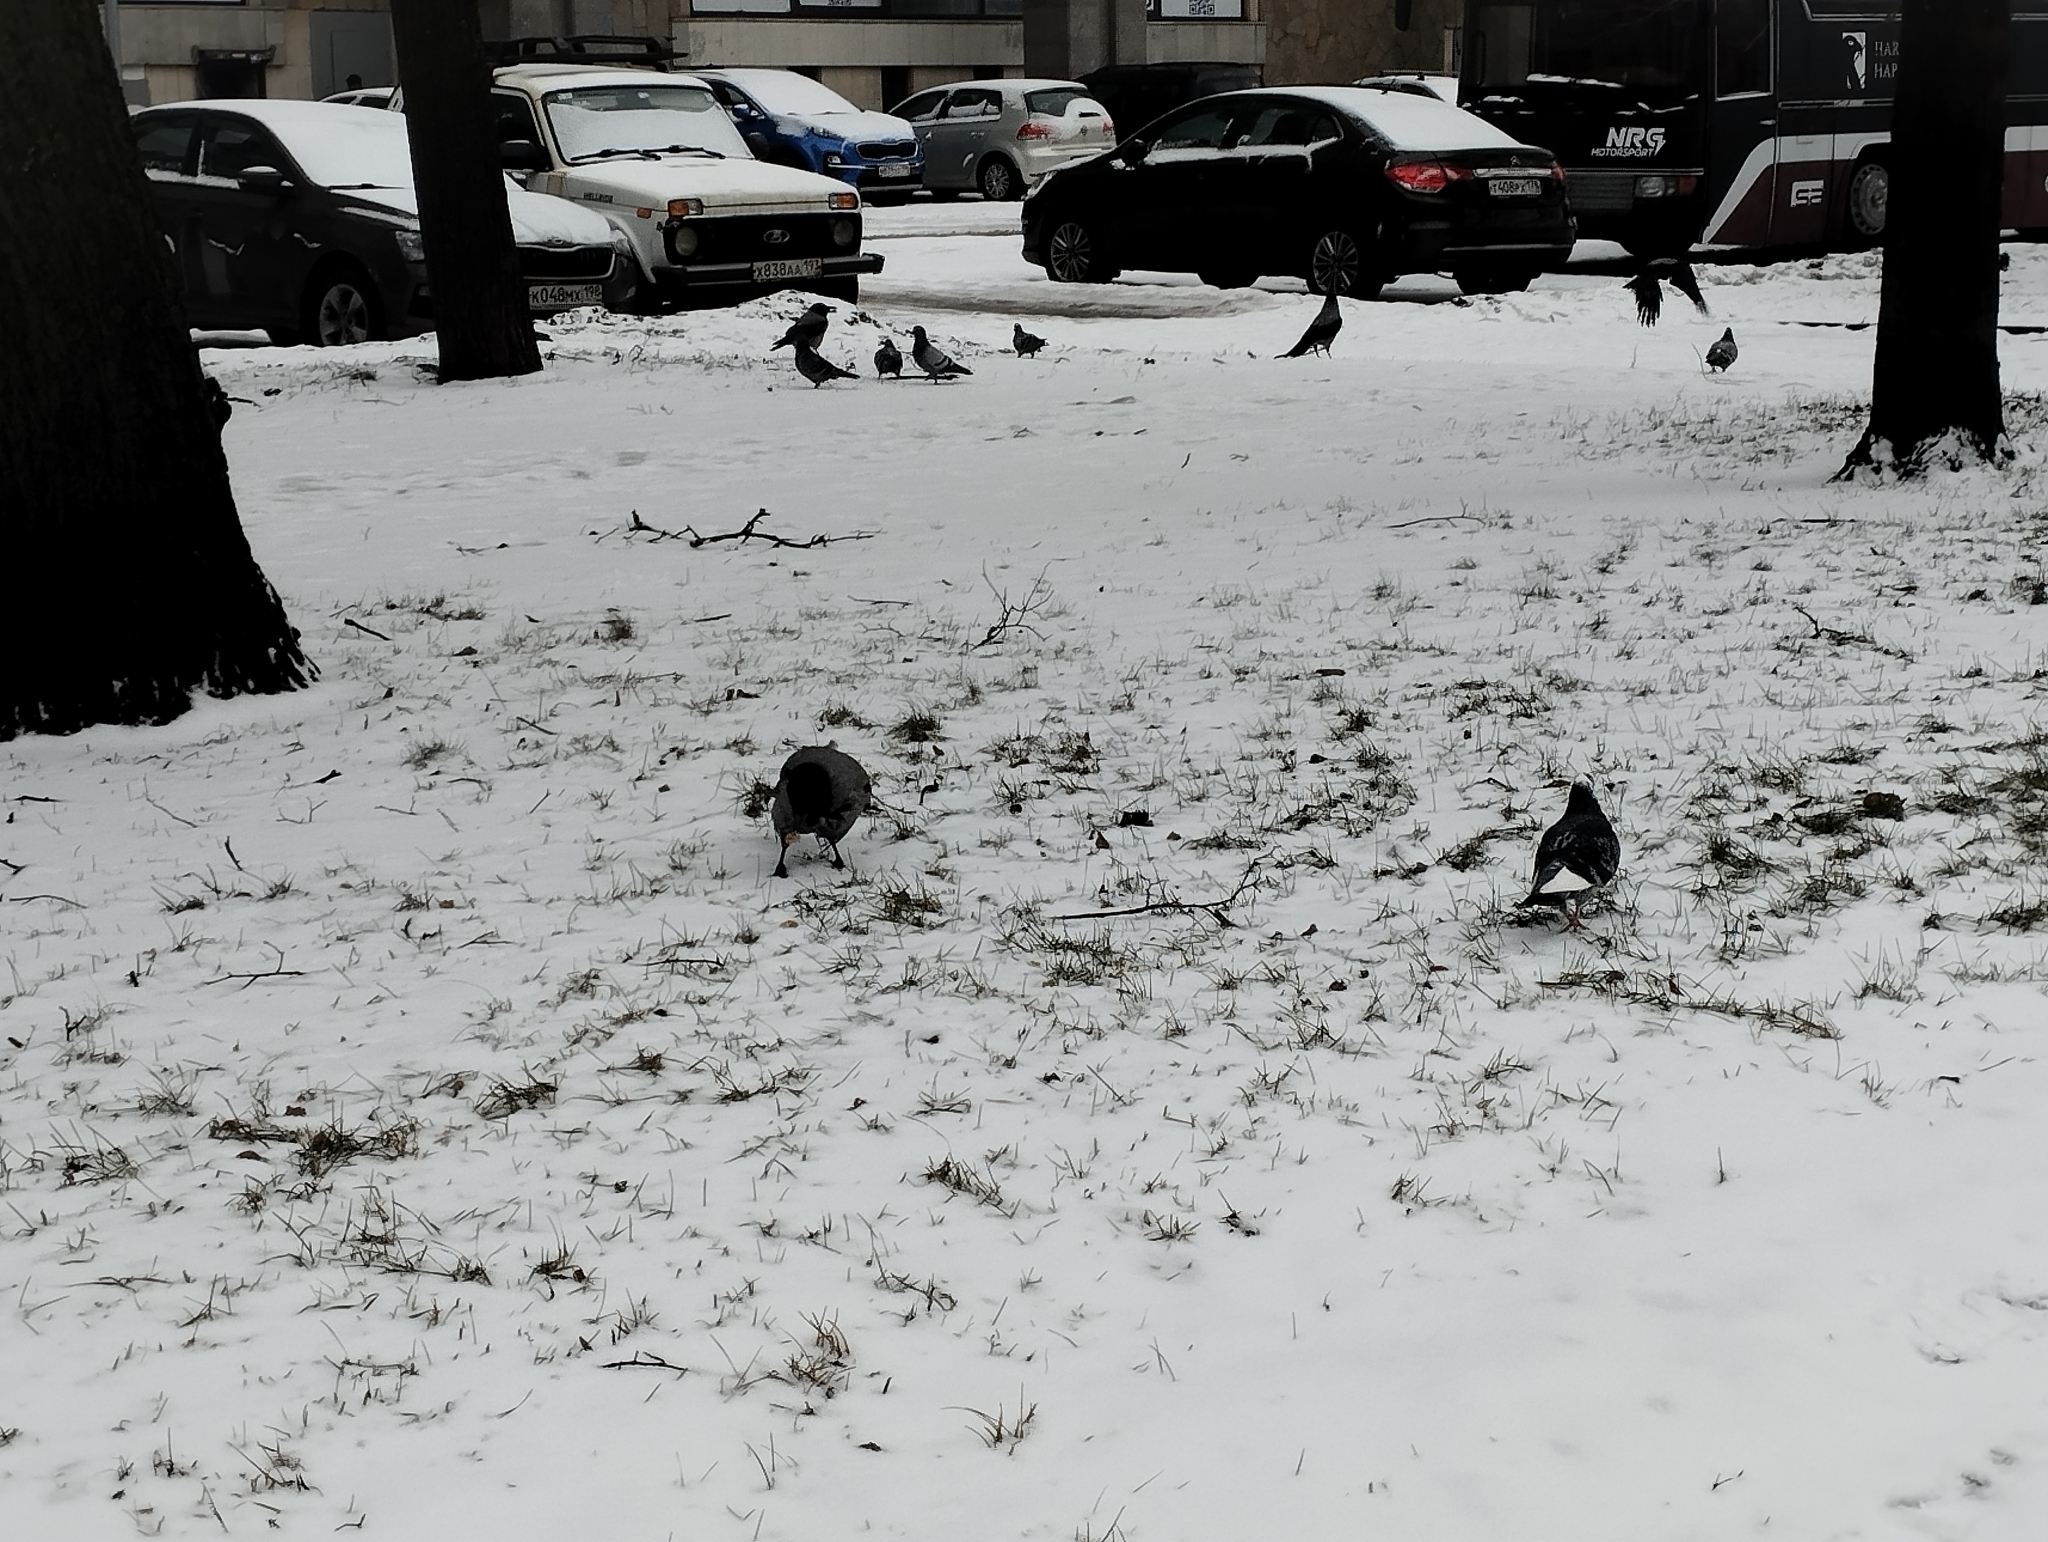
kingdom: Animalia
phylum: Chordata
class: Aves
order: Columbiformes
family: Columbidae
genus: Columba
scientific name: Columba livia
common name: Rock pigeon
